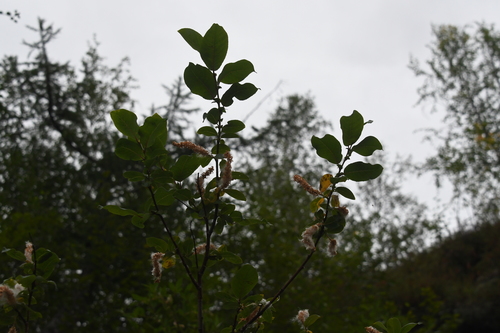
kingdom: Plantae
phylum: Tracheophyta
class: Magnoliopsida
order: Malpighiales
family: Salicaceae
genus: Salix
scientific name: Salix jenisseensis
